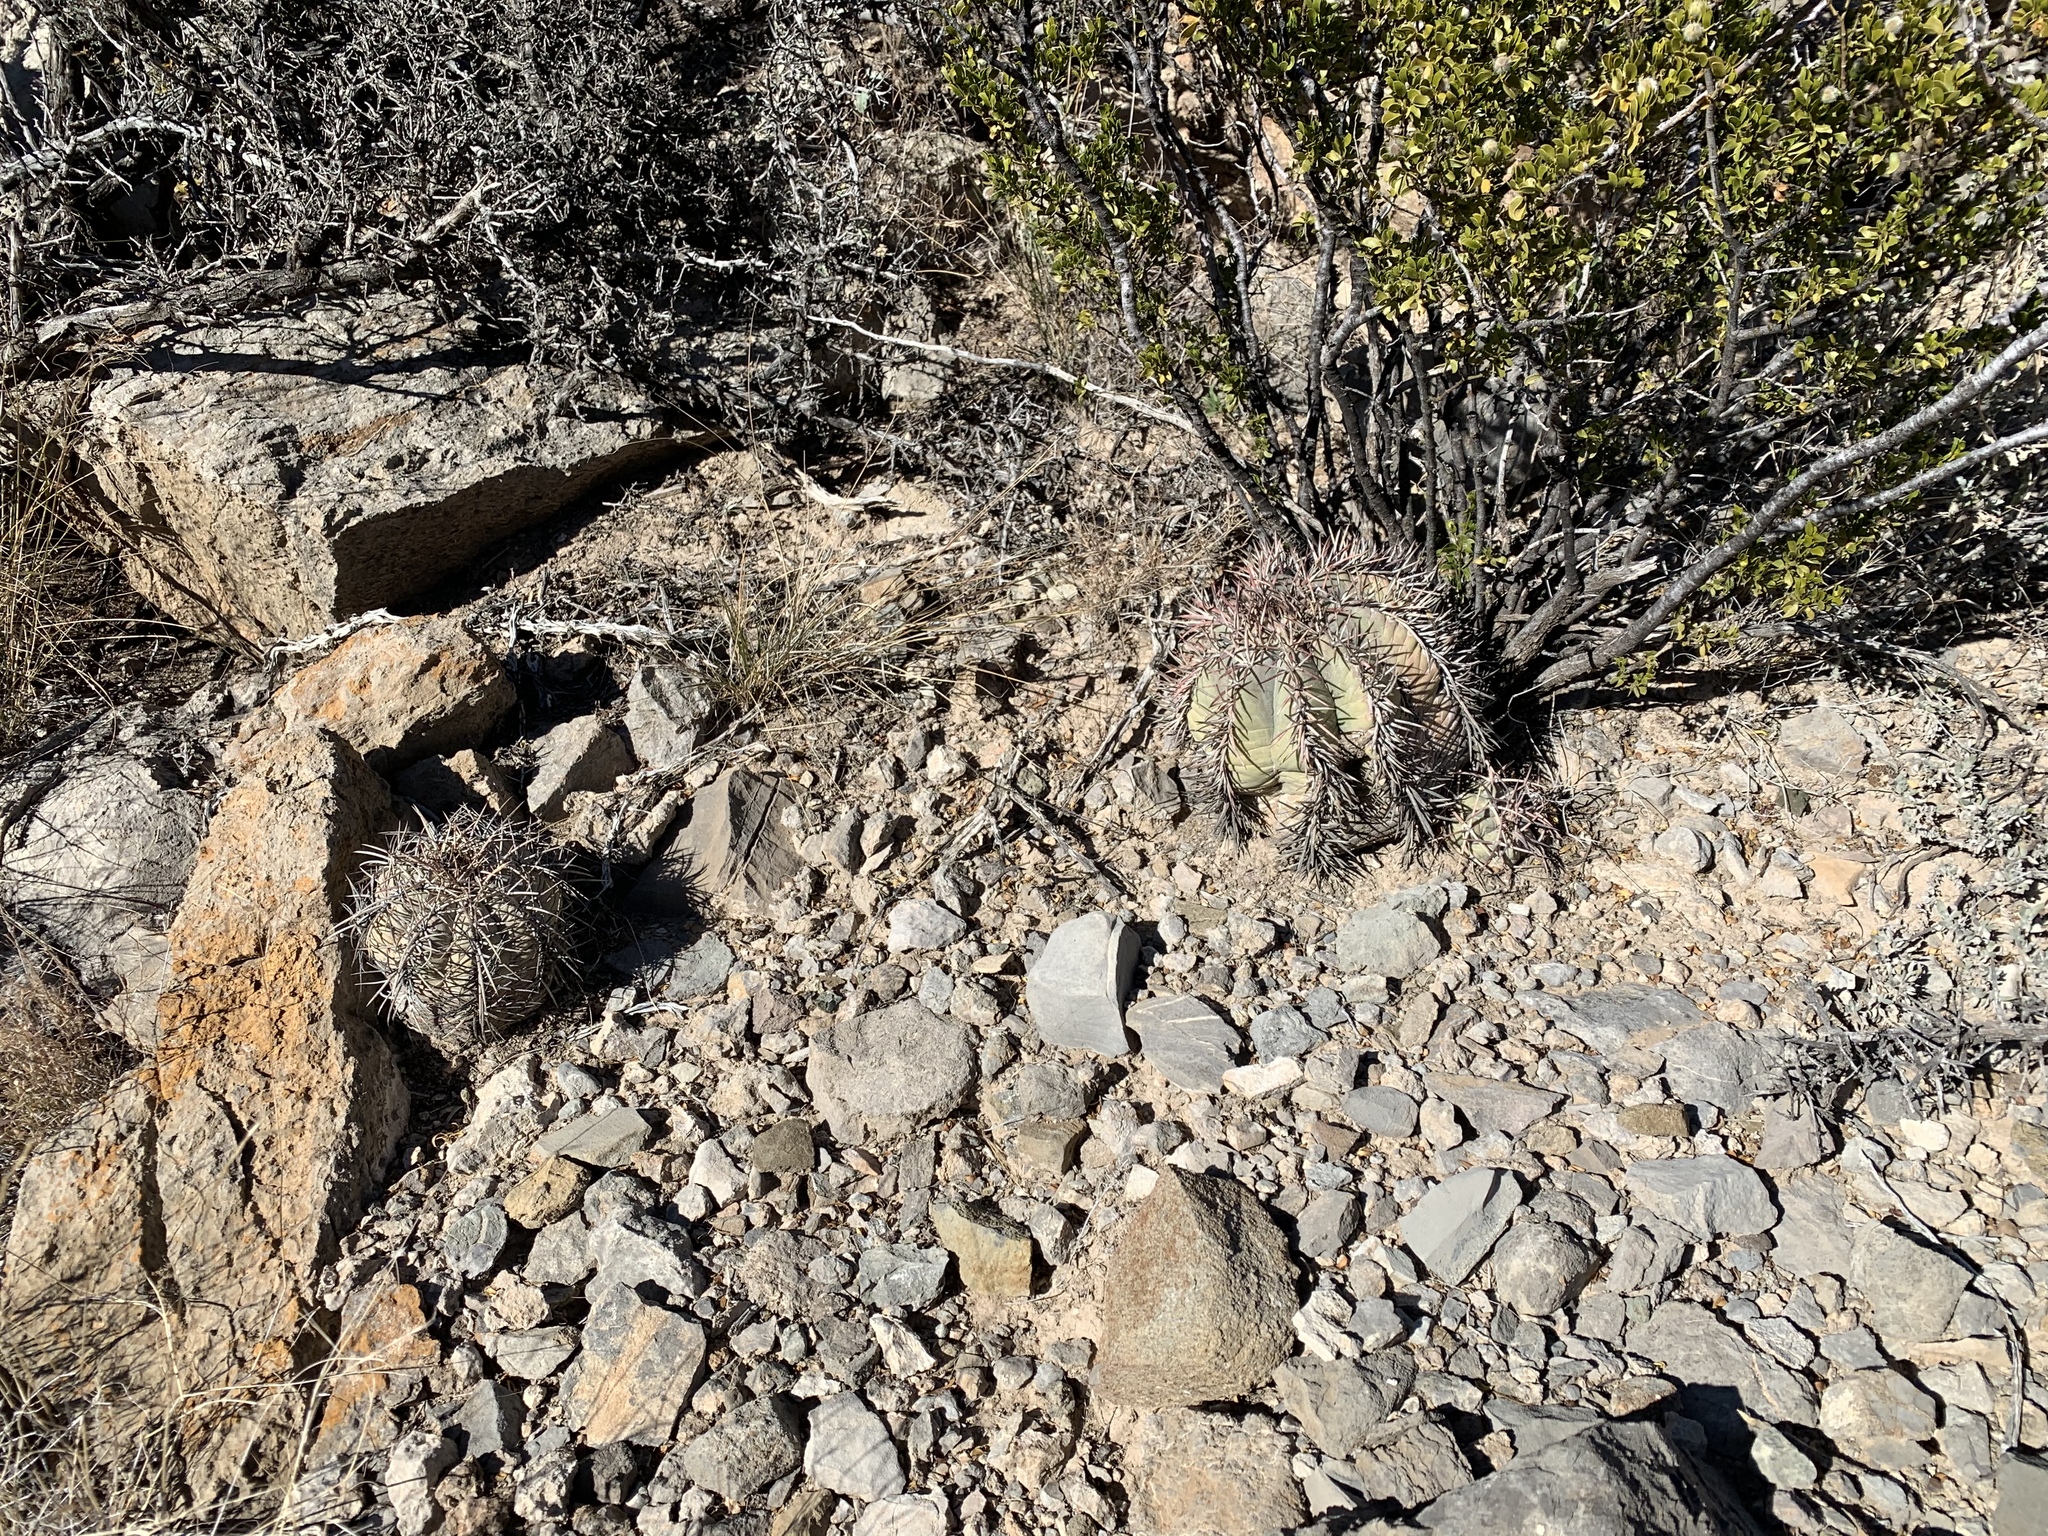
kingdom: Plantae
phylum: Tracheophyta
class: Magnoliopsida
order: Caryophyllales
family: Cactaceae
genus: Echinocactus
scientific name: Echinocactus horizonthalonius
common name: Devilshead
